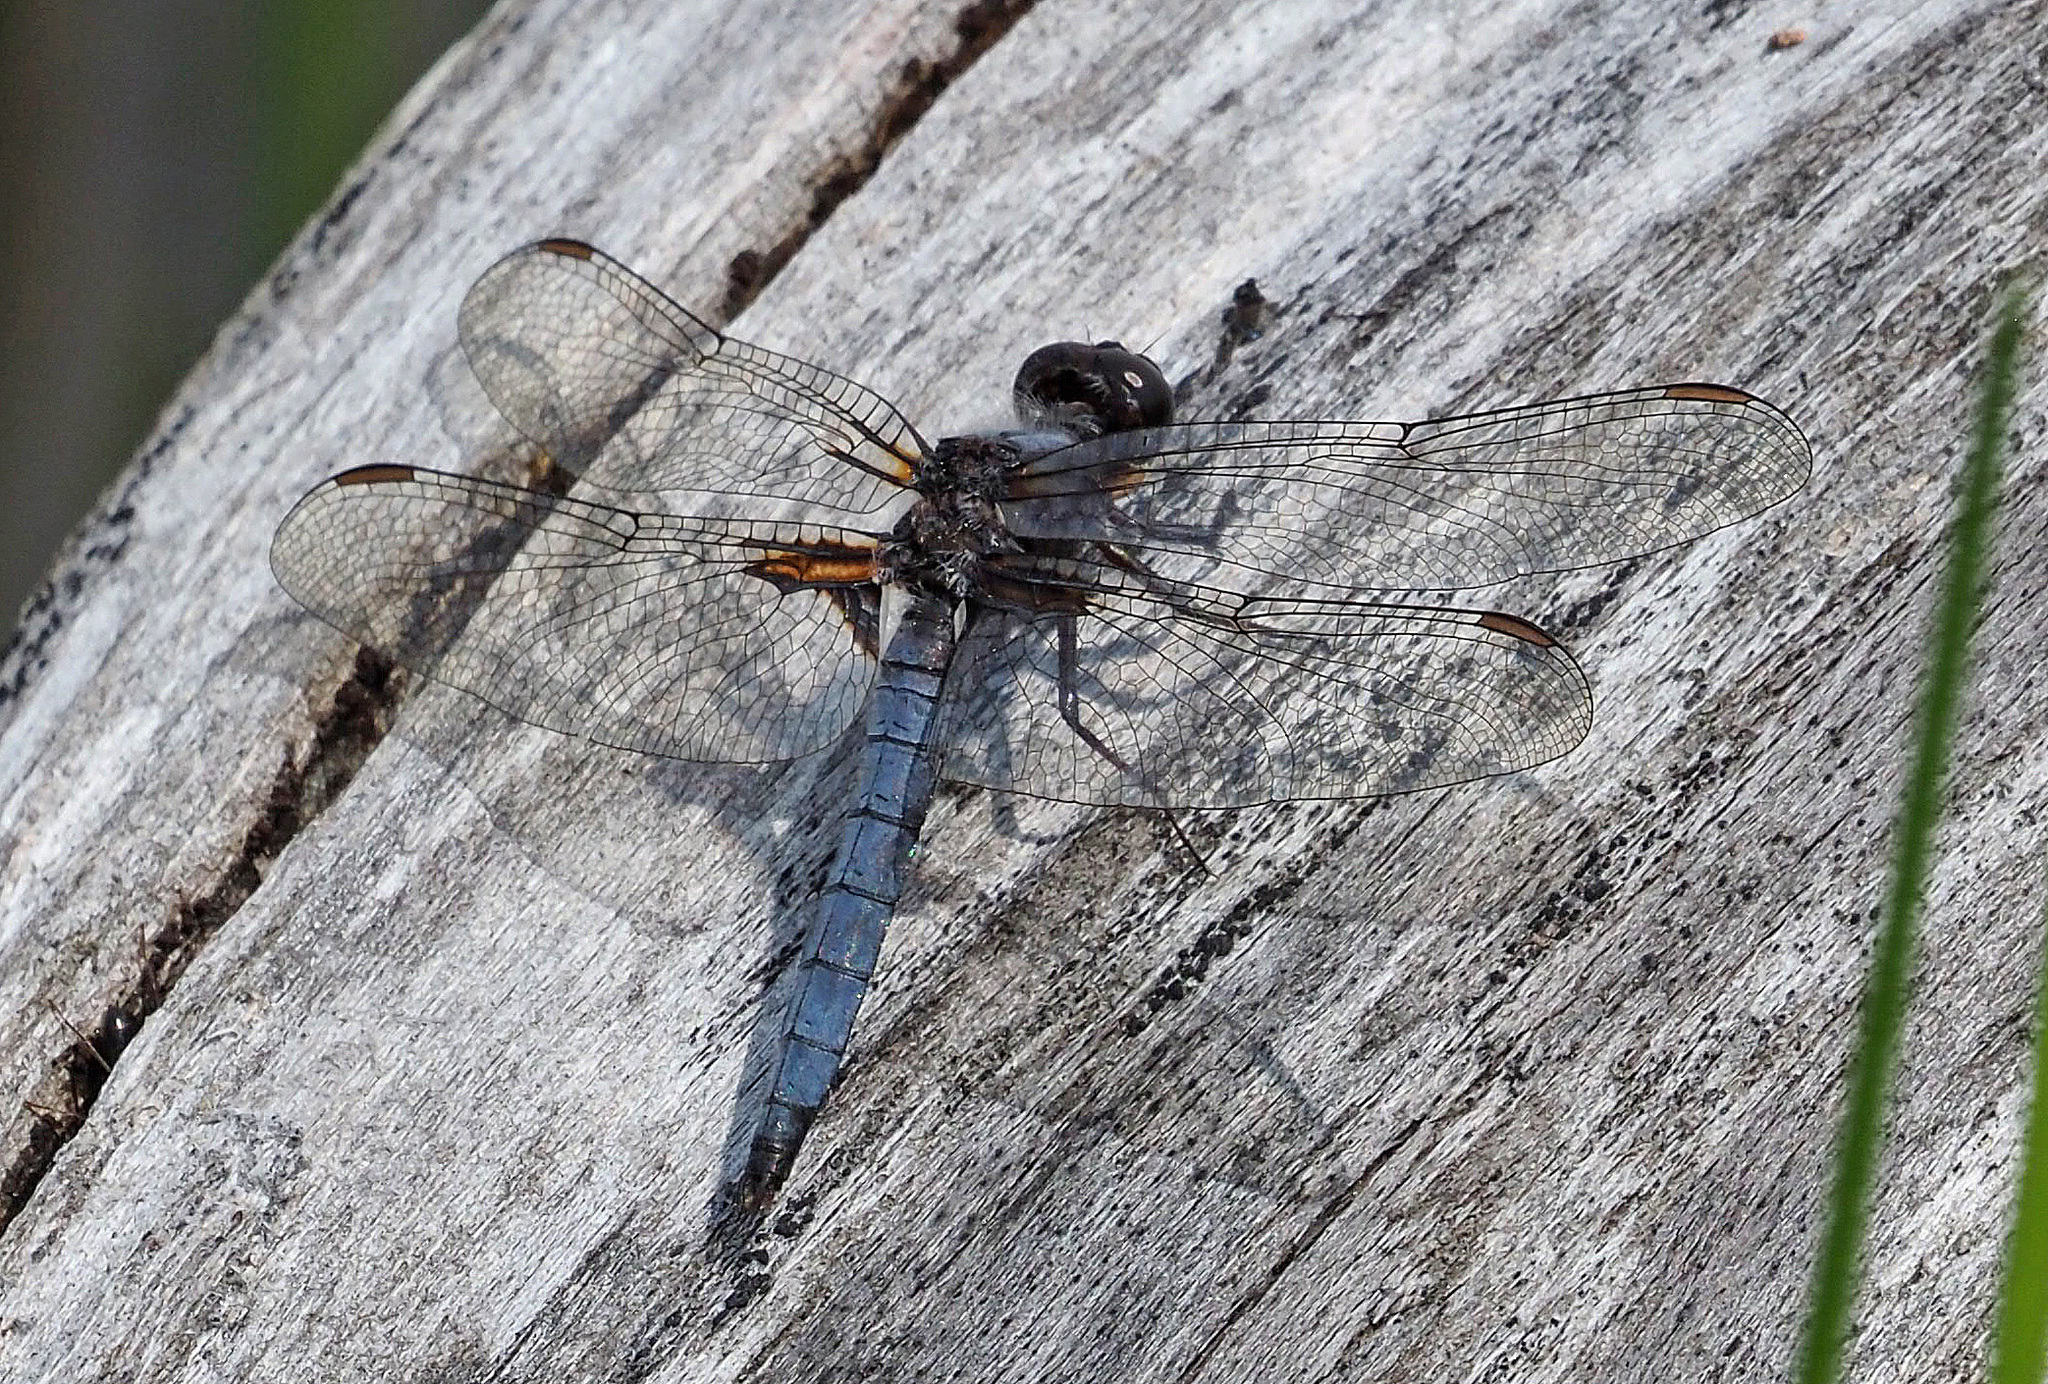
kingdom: Animalia
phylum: Arthropoda
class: Insecta
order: Odonata
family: Libellulidae
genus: Ladona
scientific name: Ladona deplanata
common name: Blue corporal
